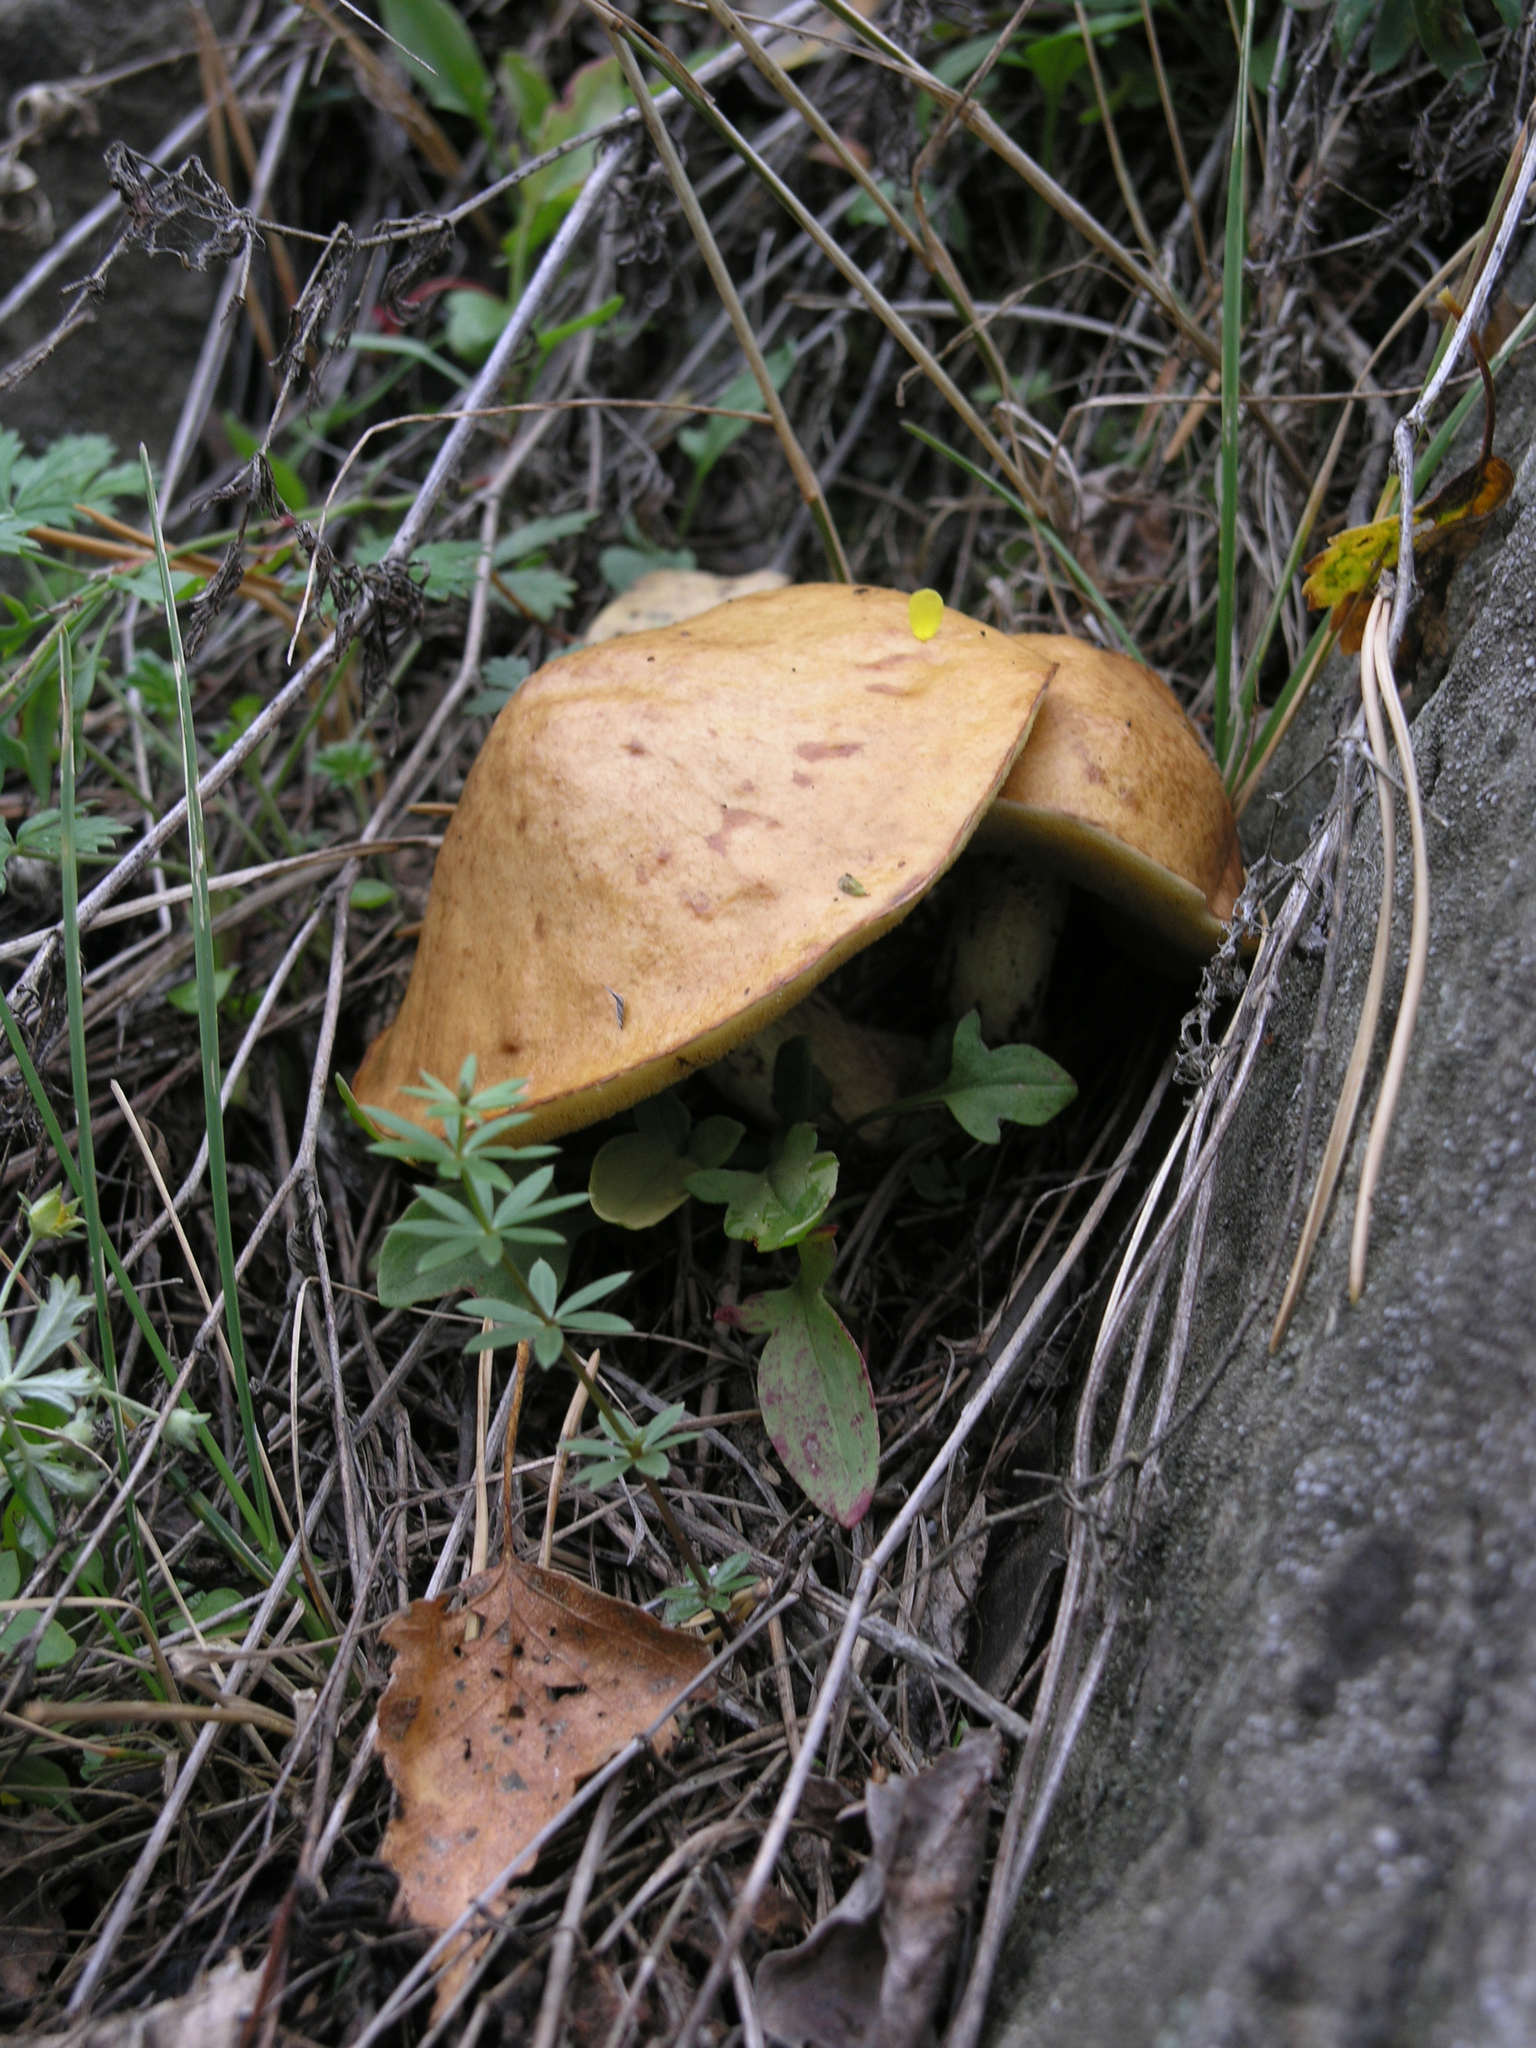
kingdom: Fungi
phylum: Basidiomycota
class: Agaricomycetes
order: Boletales
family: Suillaceae
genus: Suillus
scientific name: Suillus granulatus
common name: Weeping bolete
